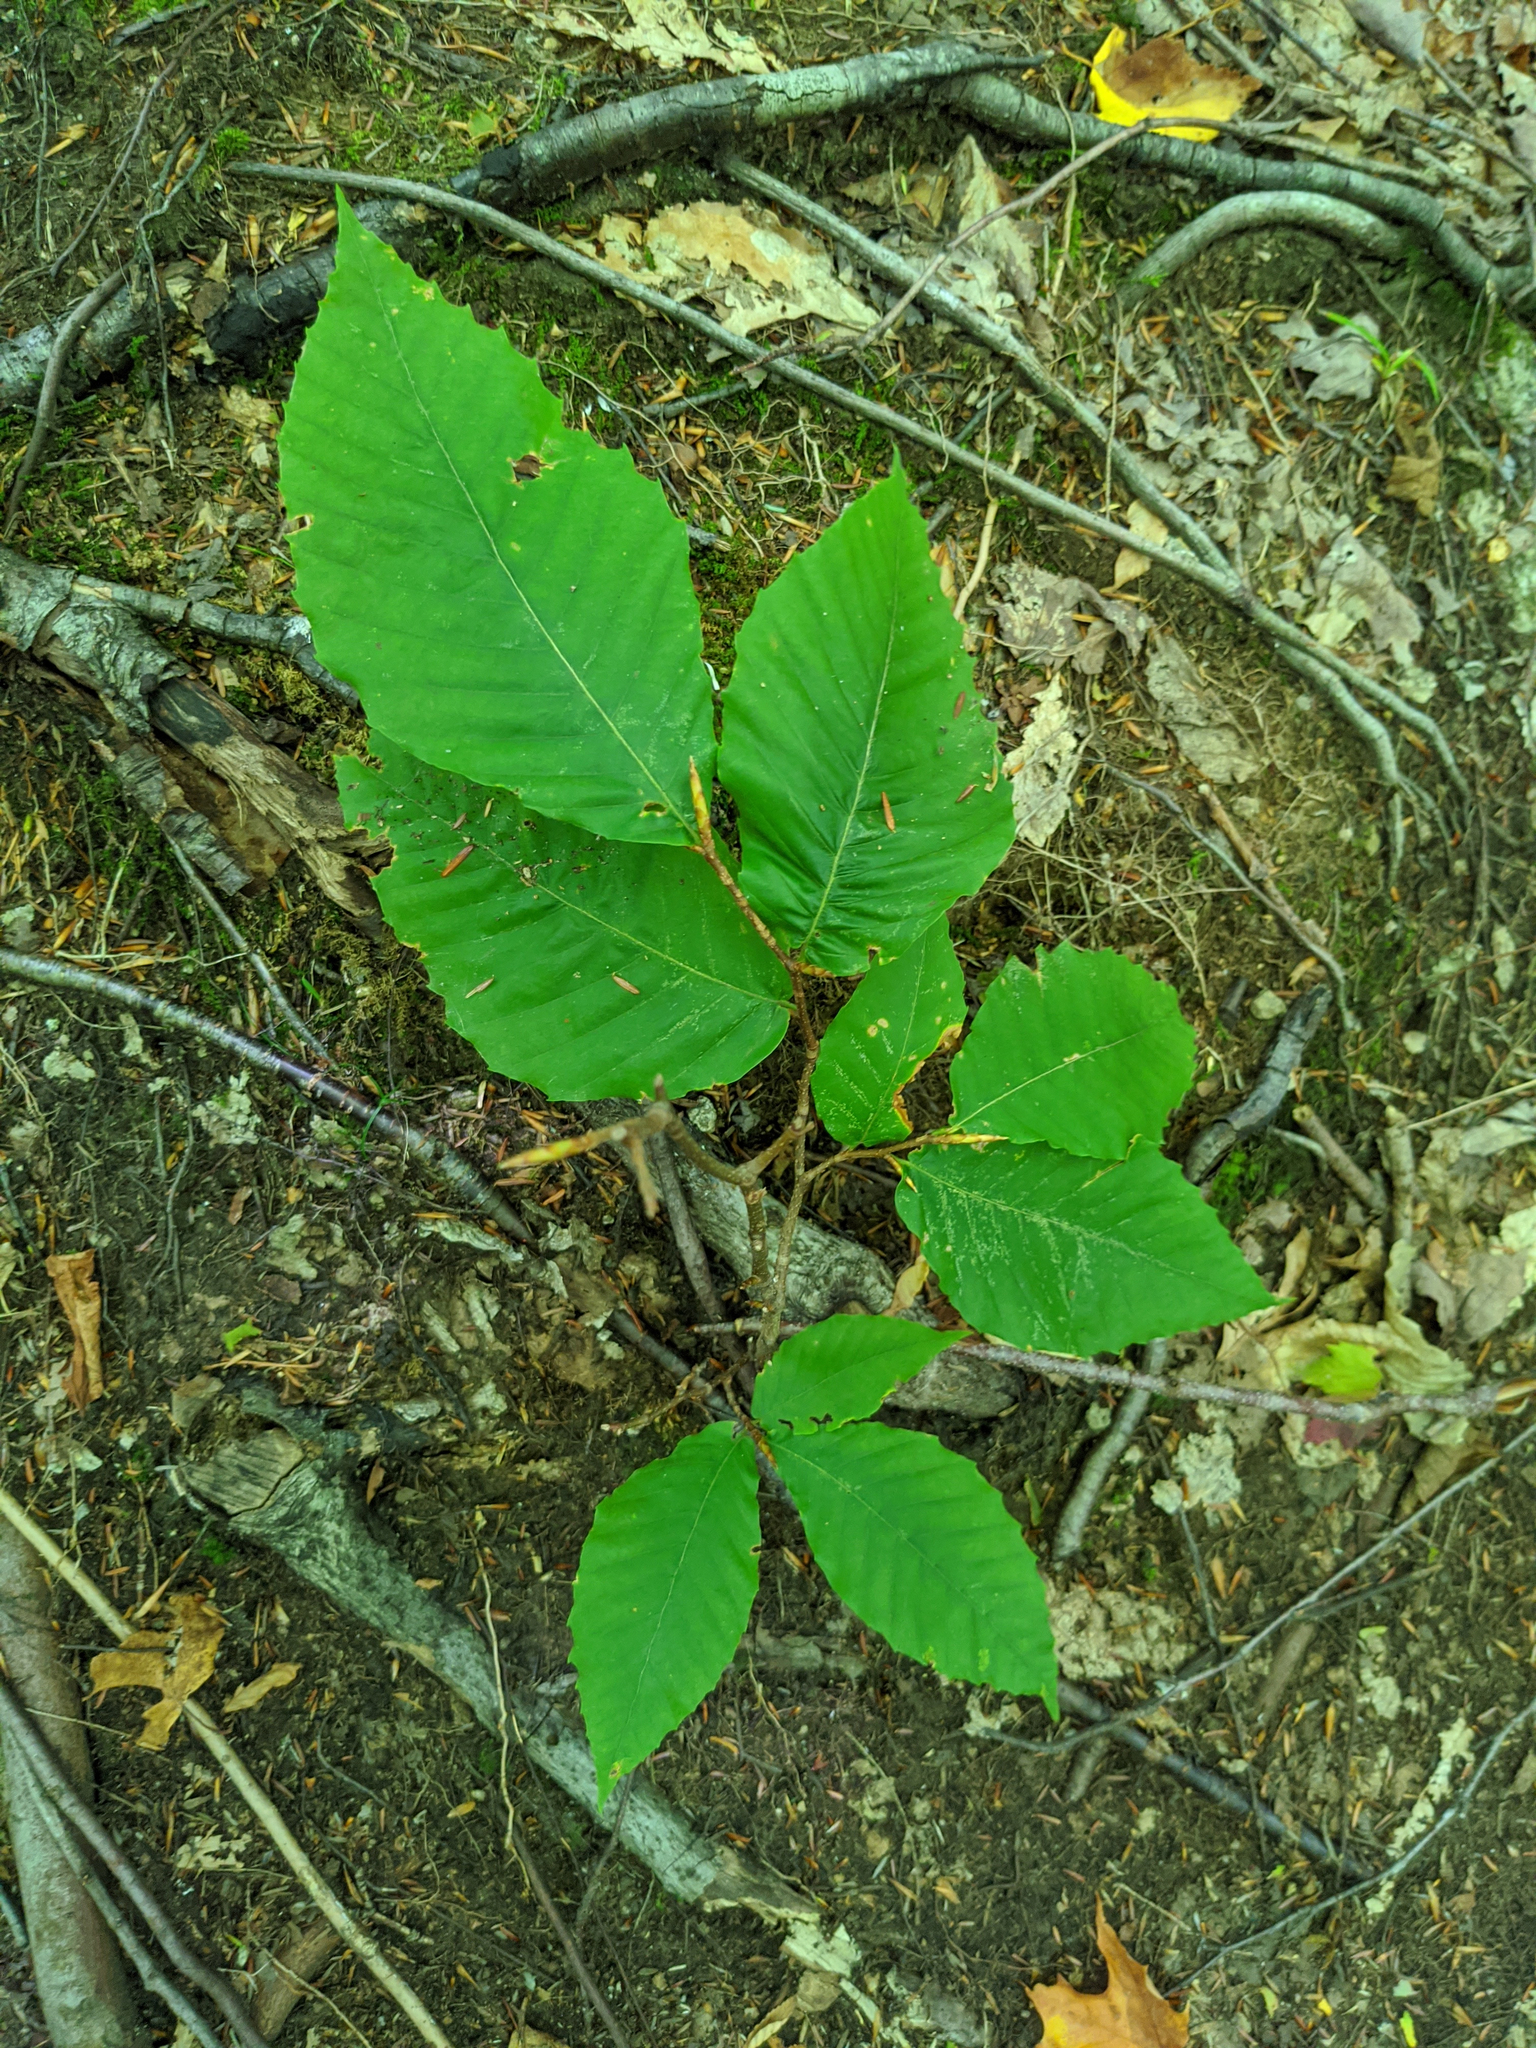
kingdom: Plantae
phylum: Tracheophyta
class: Magnoliopsida
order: Fagales
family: Fagaceae
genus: Fagus
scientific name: Fagus grandifolia
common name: American beech
